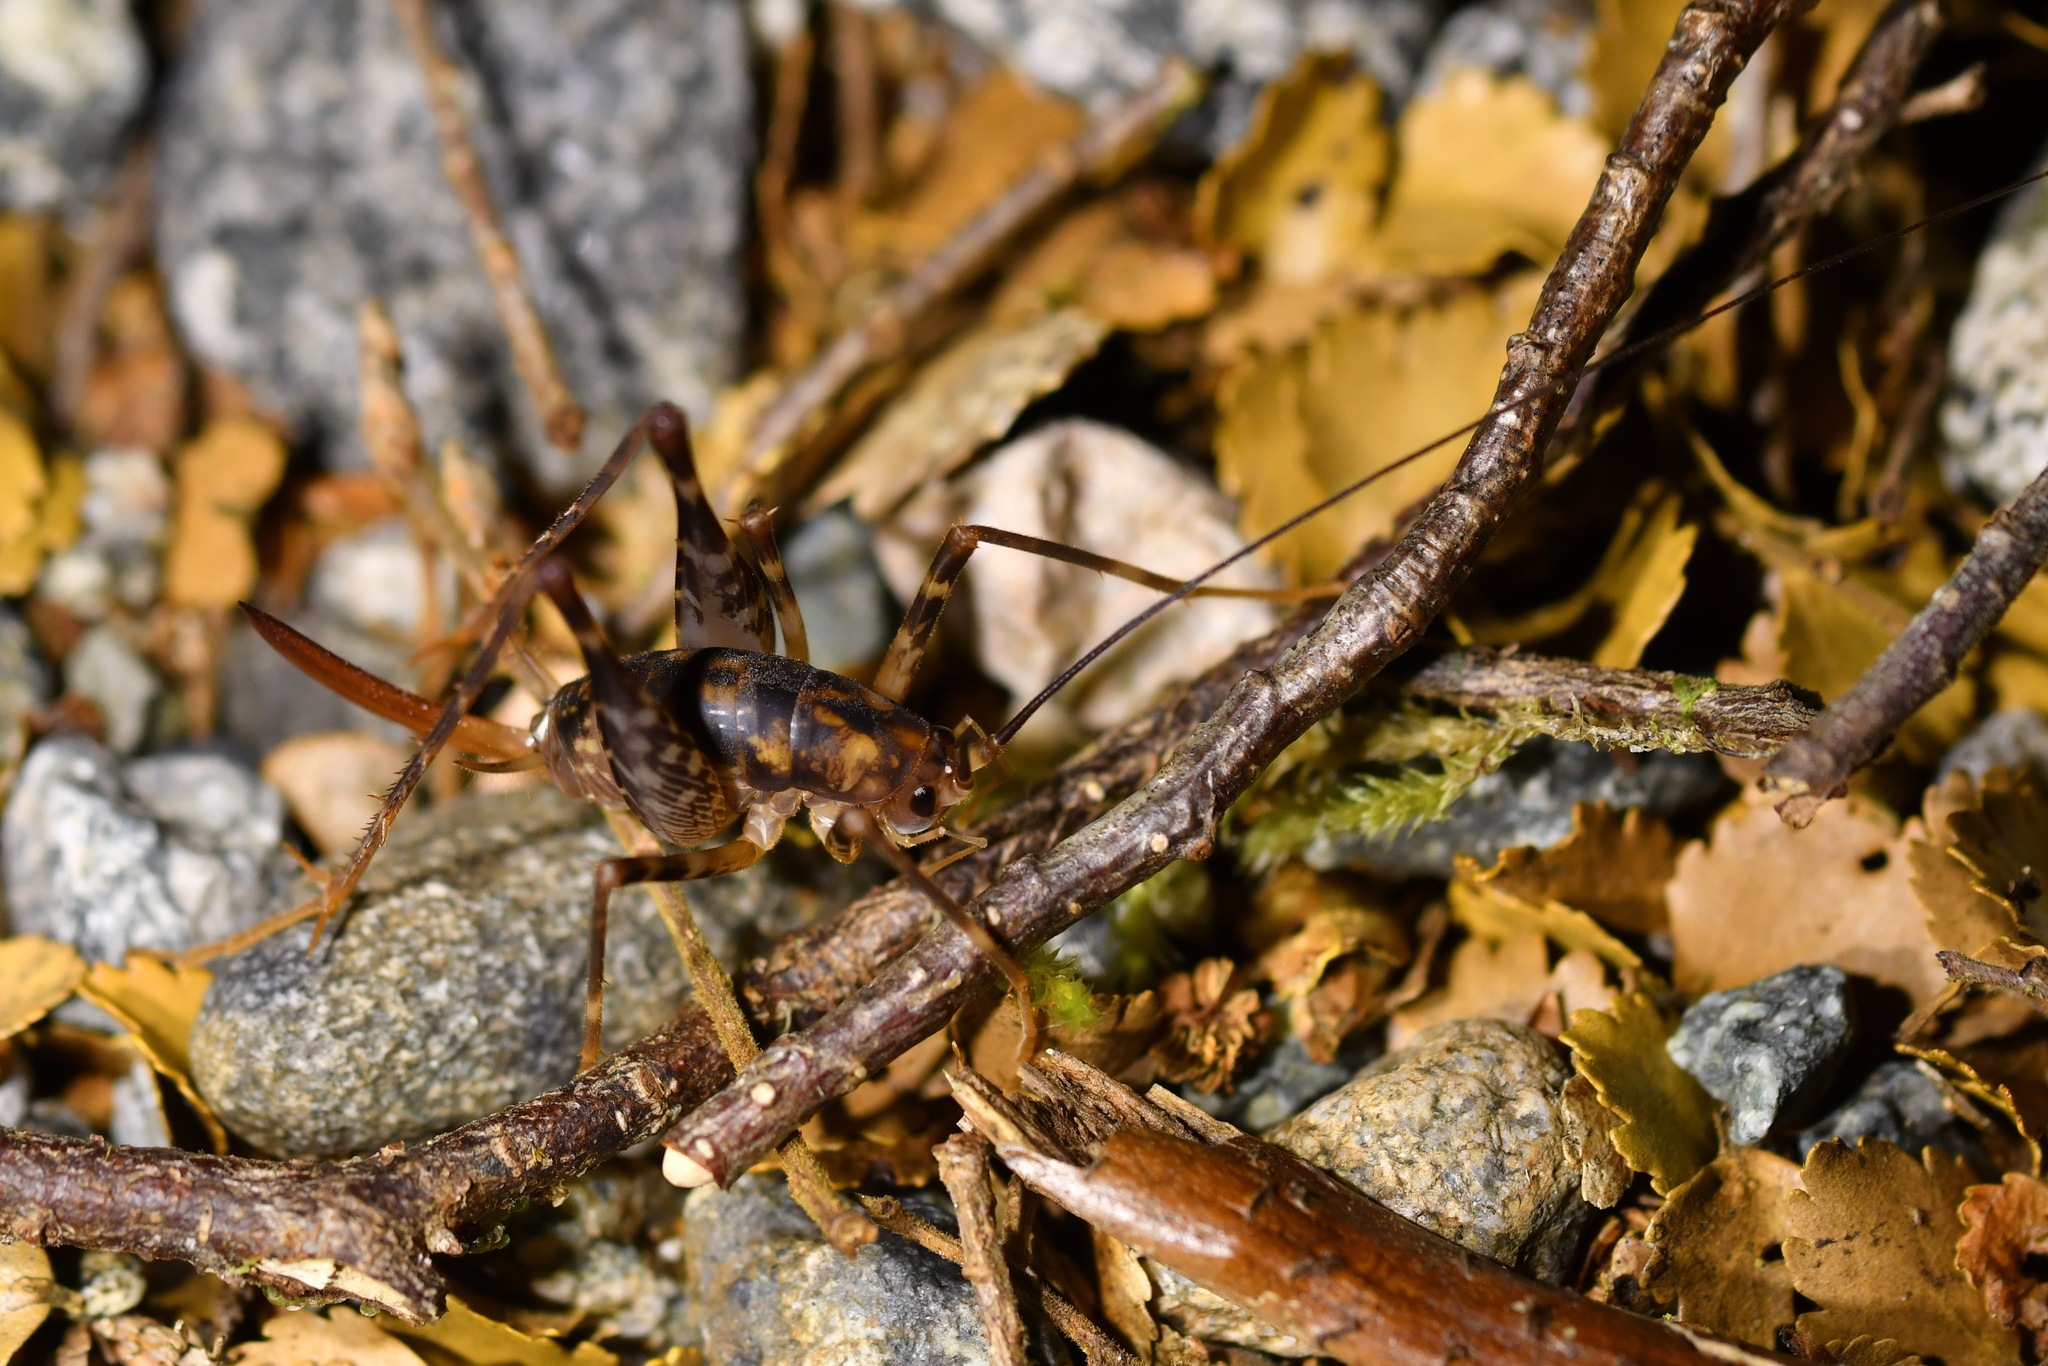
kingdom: Animalia
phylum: Arthropoda
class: Insecta
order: Orthoptera
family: Rhaphidophoridae
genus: Miotopus
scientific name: Miotopus richardsae
